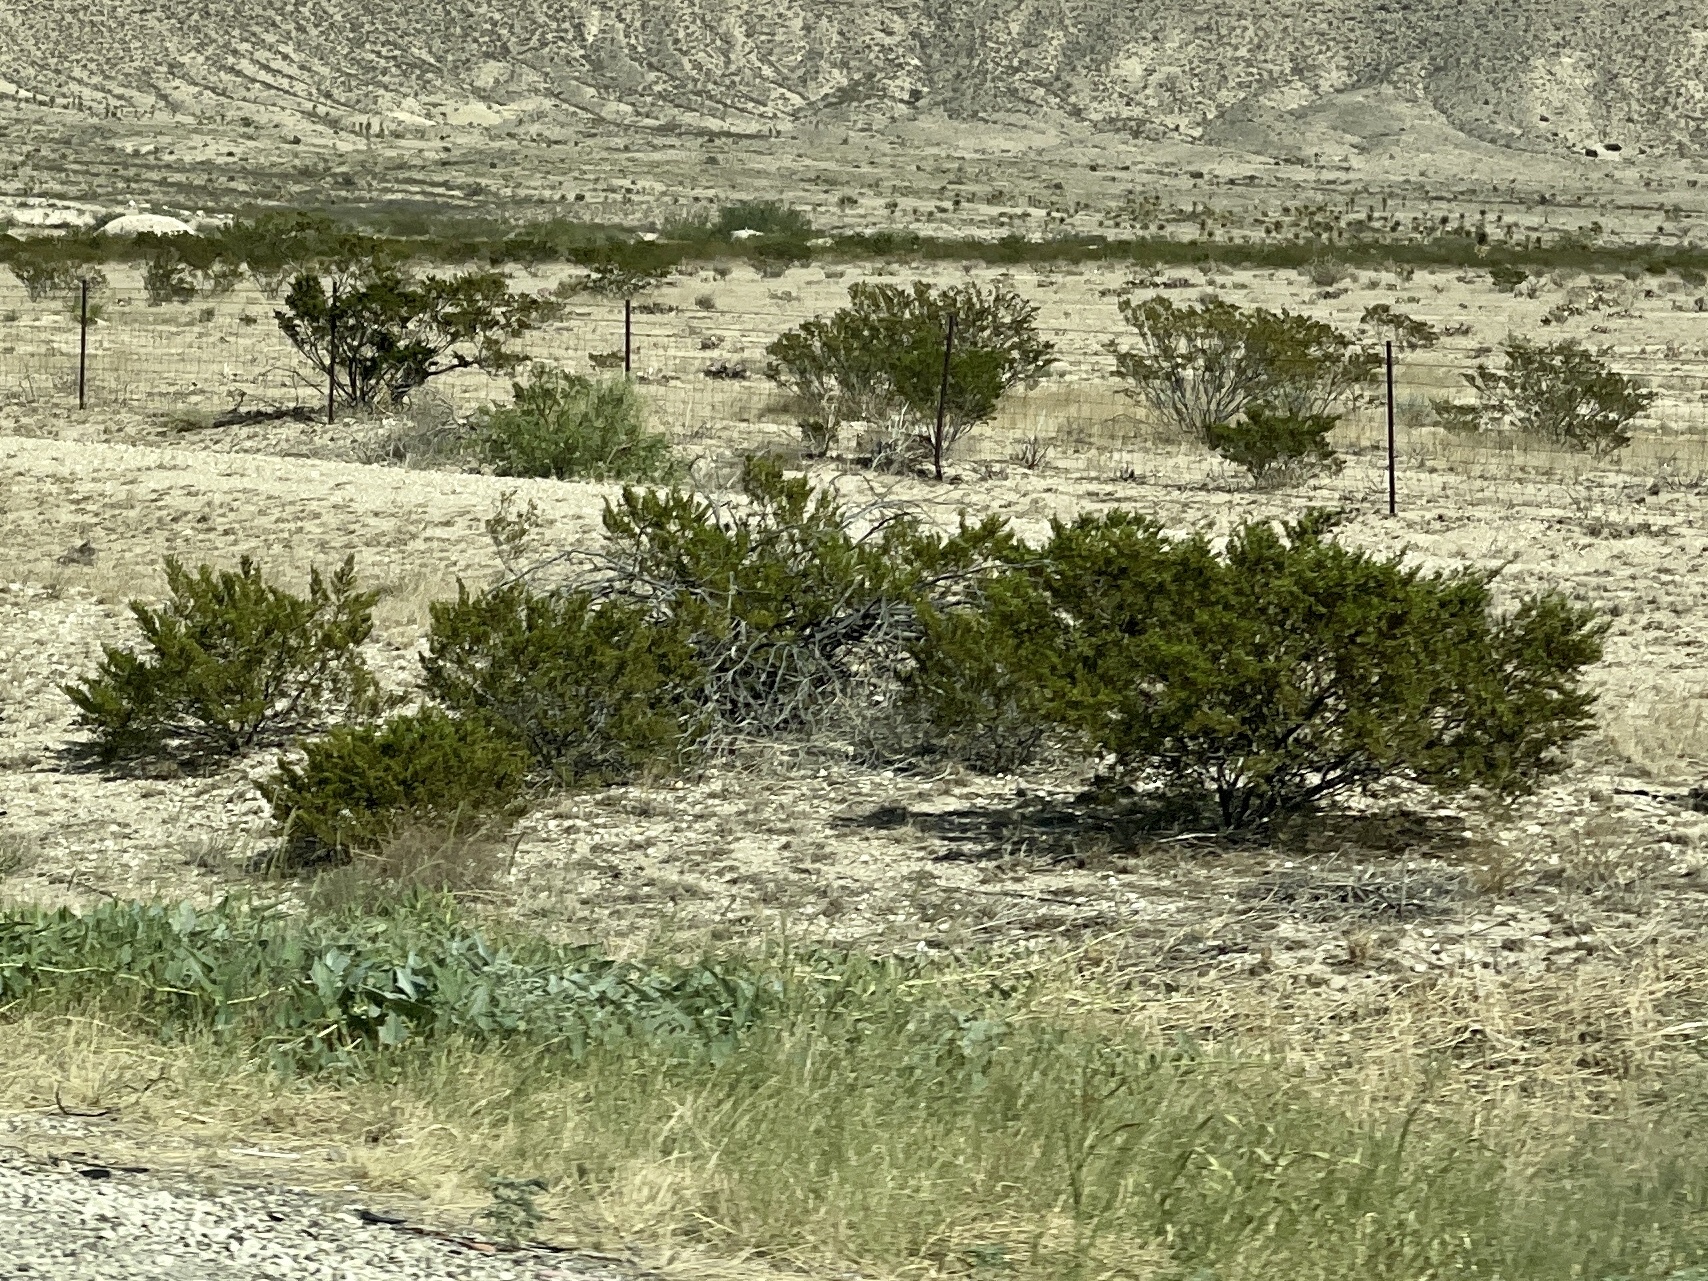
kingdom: Plantae
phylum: Tracheophyta
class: Magnoliopsida
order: Zygophyllales
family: Zygophyllaceae
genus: Larrea
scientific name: Larrea tridentata
